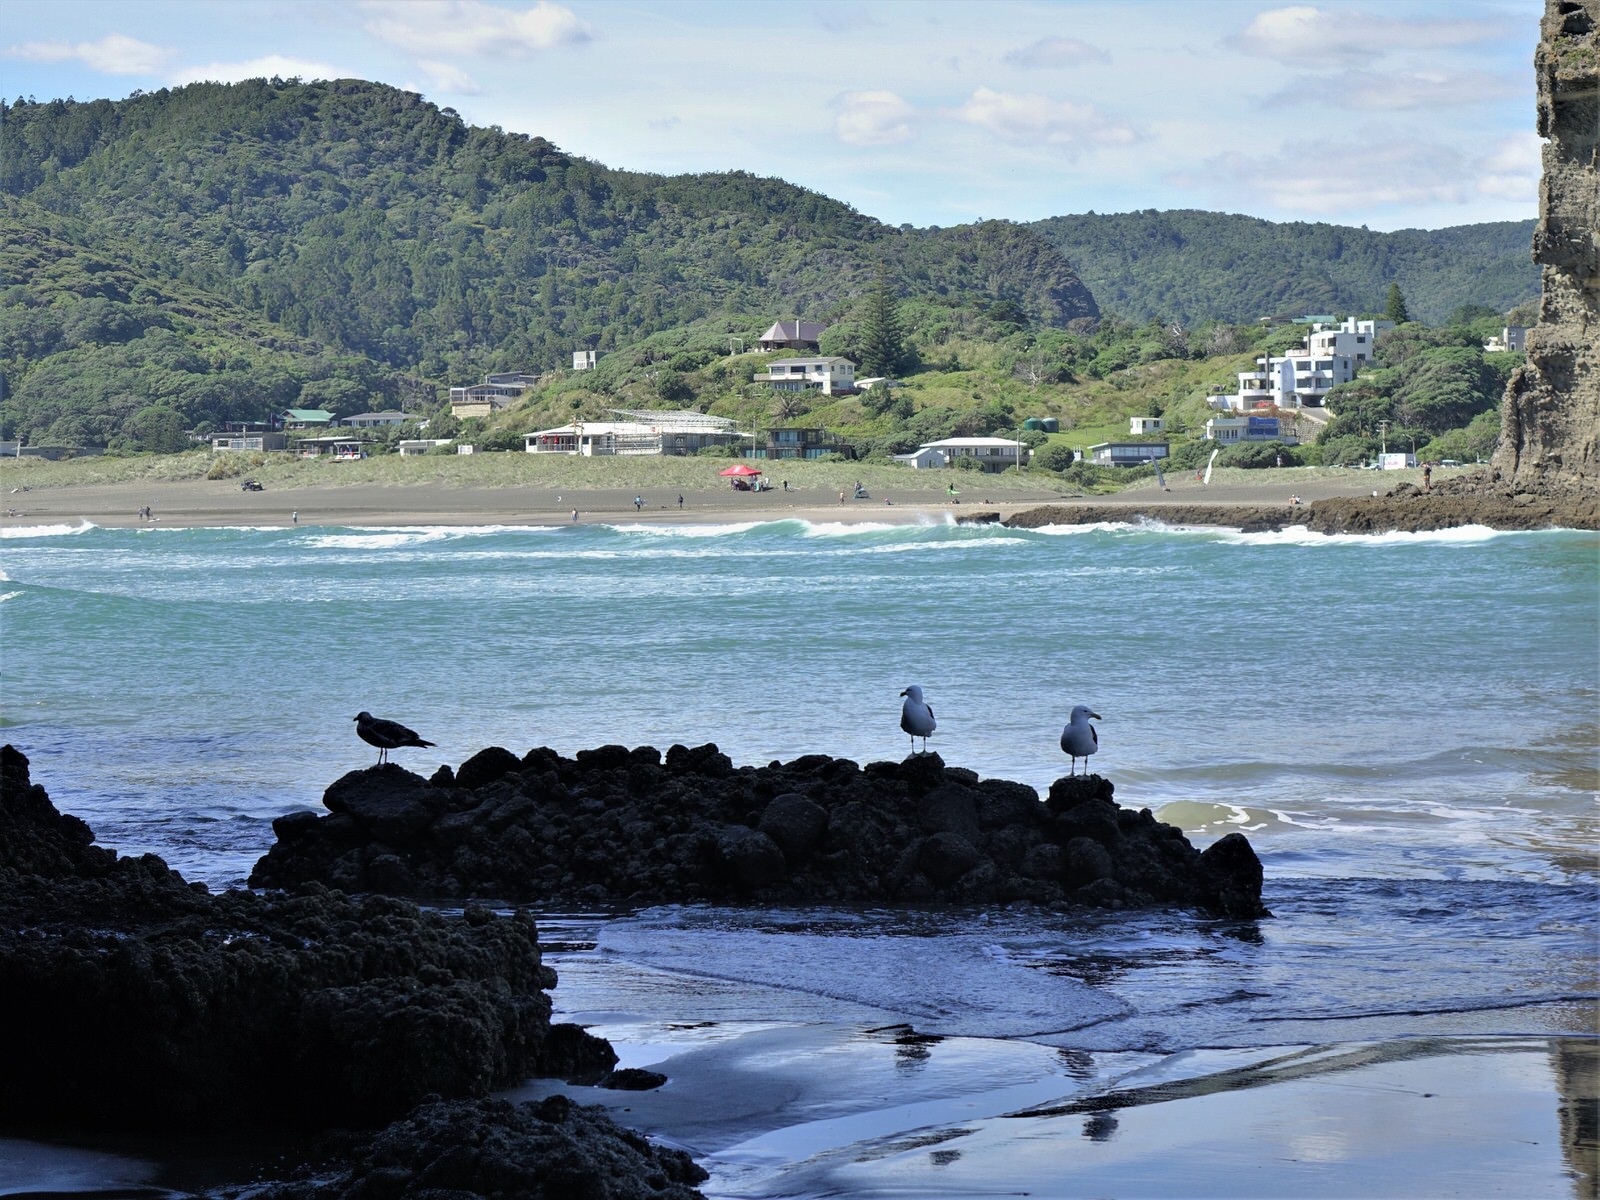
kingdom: Animalia
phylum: Chordata
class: Aves
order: Charadriiformes
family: Laridae
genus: Larus
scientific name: Larus dominicanus
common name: Kelp gull
